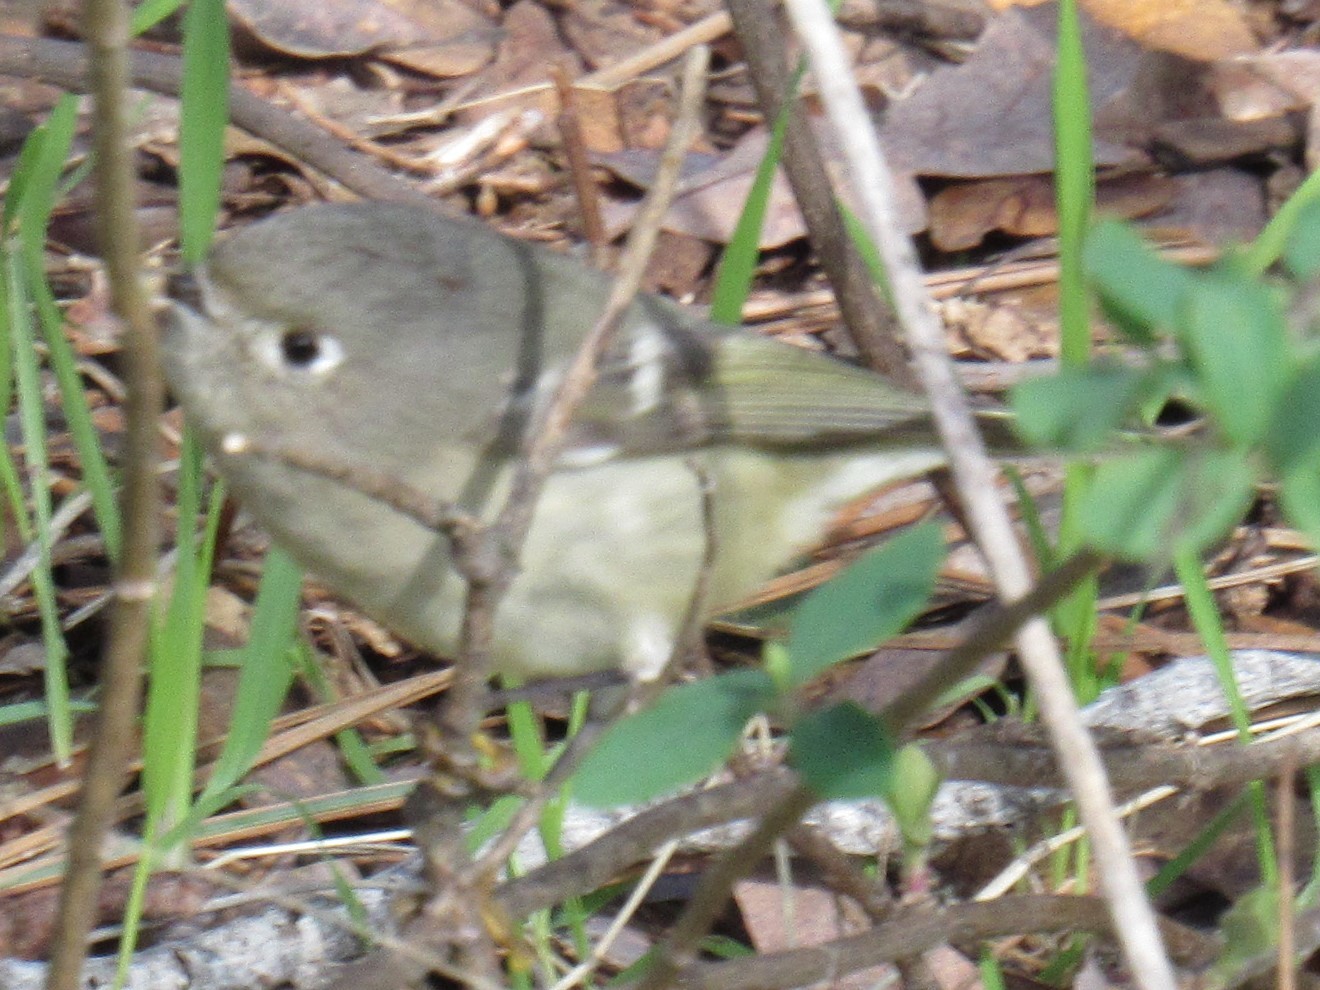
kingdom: Animalia
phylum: Chordata
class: Aves
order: Passeriformes
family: Regulidae
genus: Regulus
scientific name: Regulus calendula
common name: Ruby-crowned kinglet
